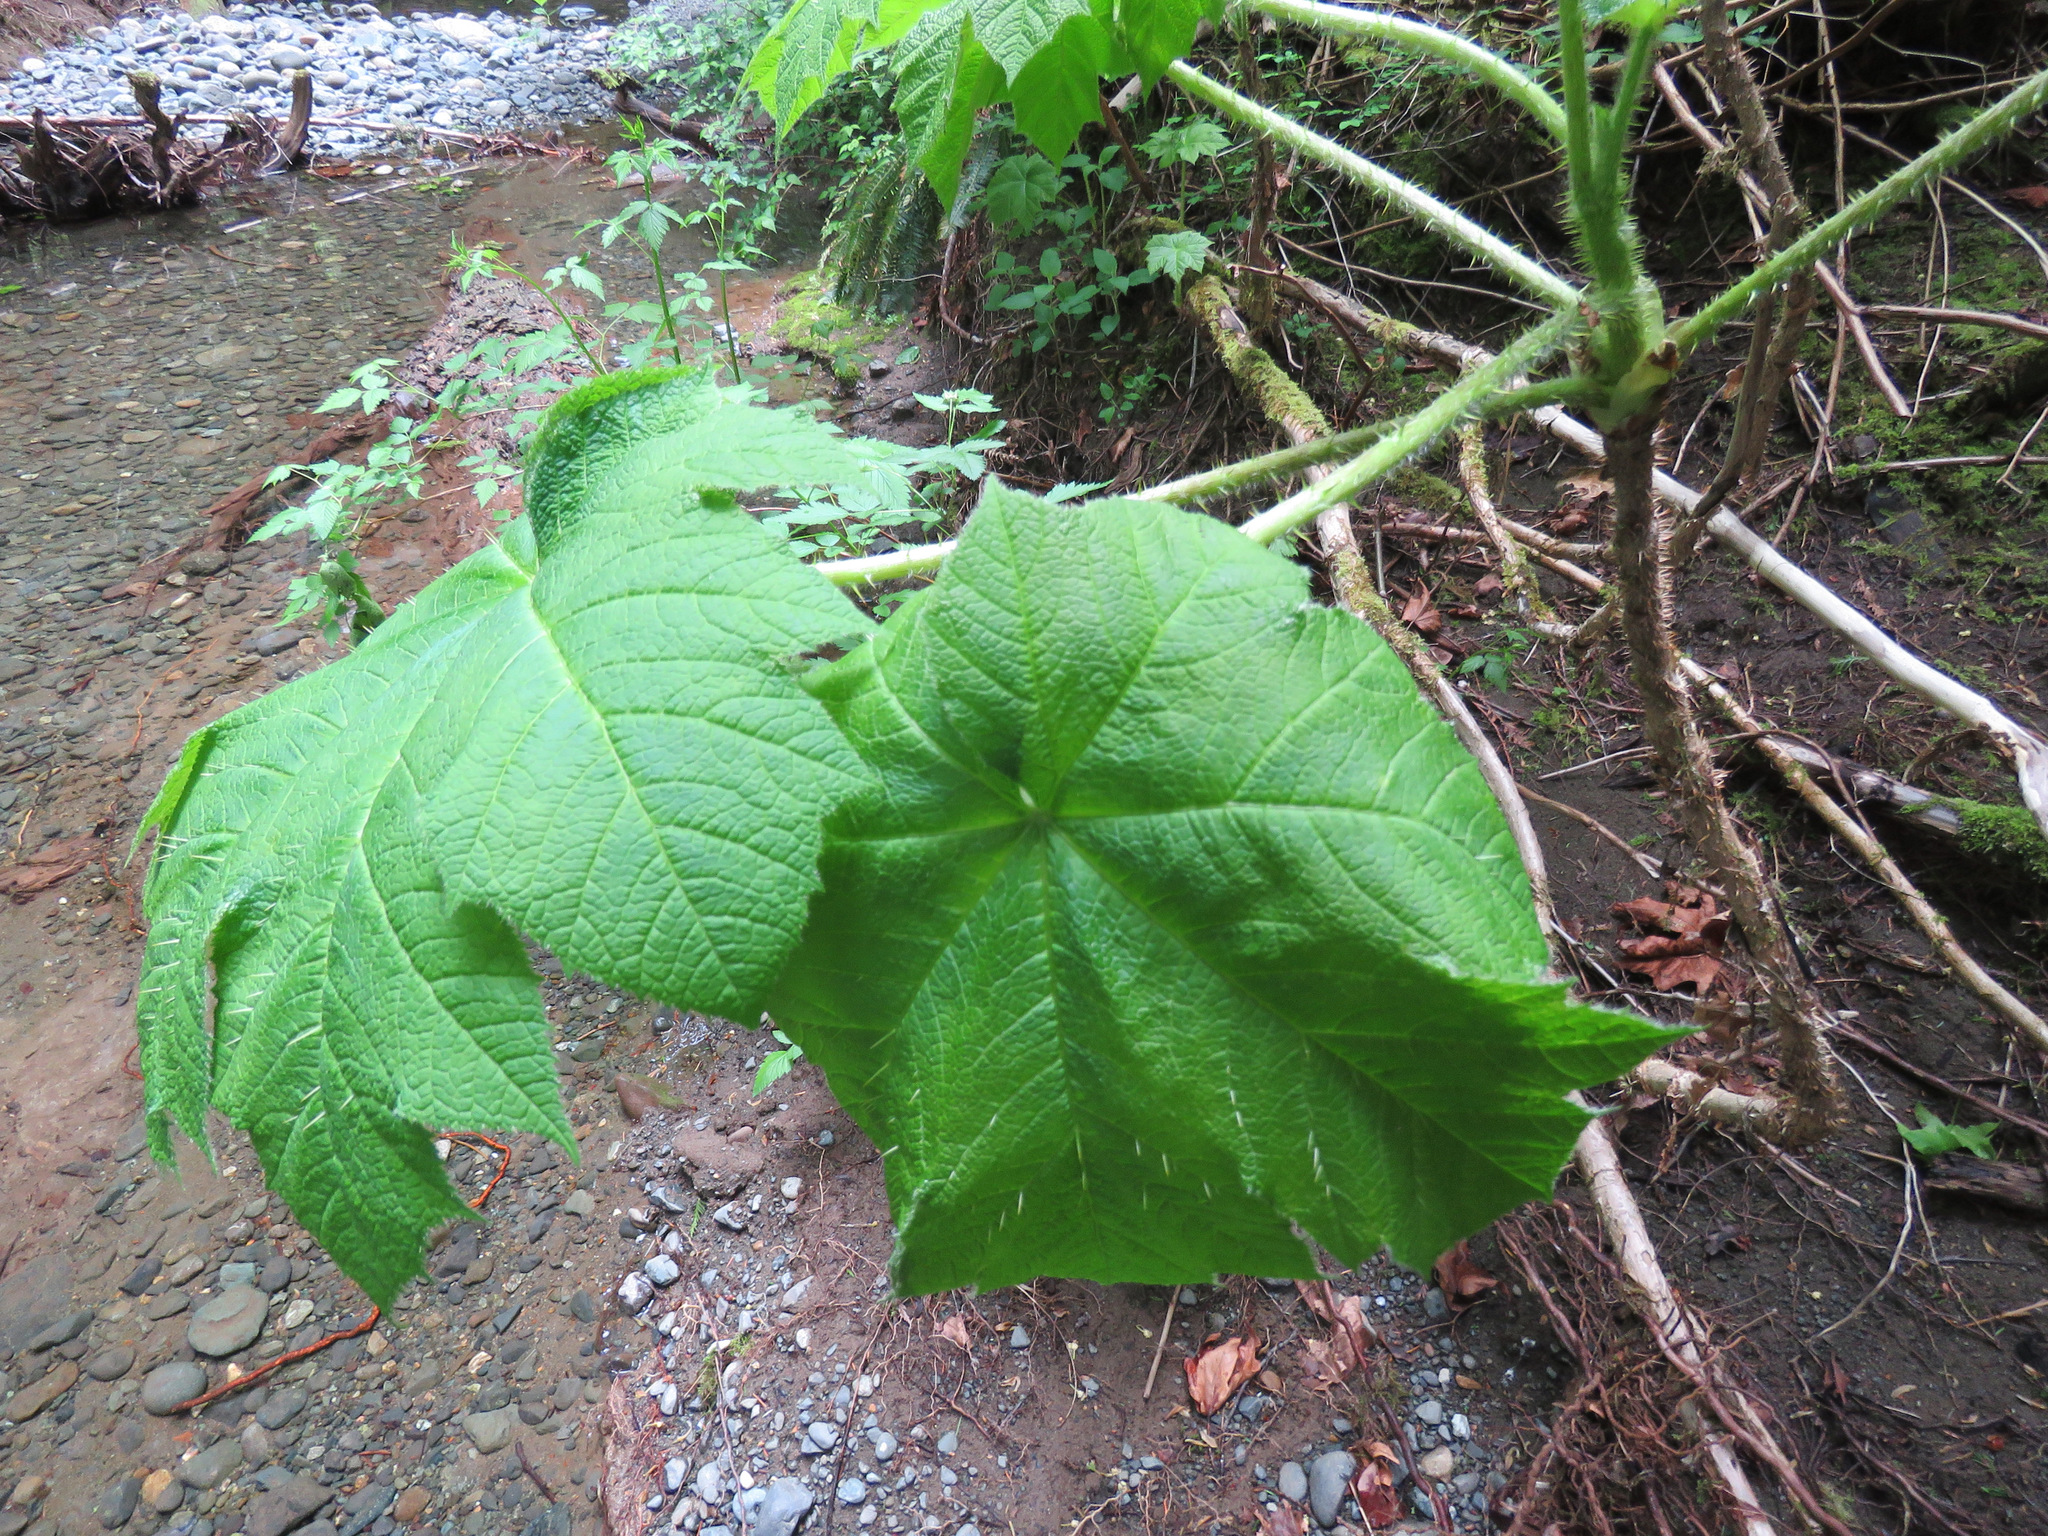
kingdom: Plantae
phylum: Tracheophyta
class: Magnoliopsida
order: Apiales
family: Araliaceae
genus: Oplopanax
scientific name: Oplopanax horridus
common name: Devil's walking-stick
